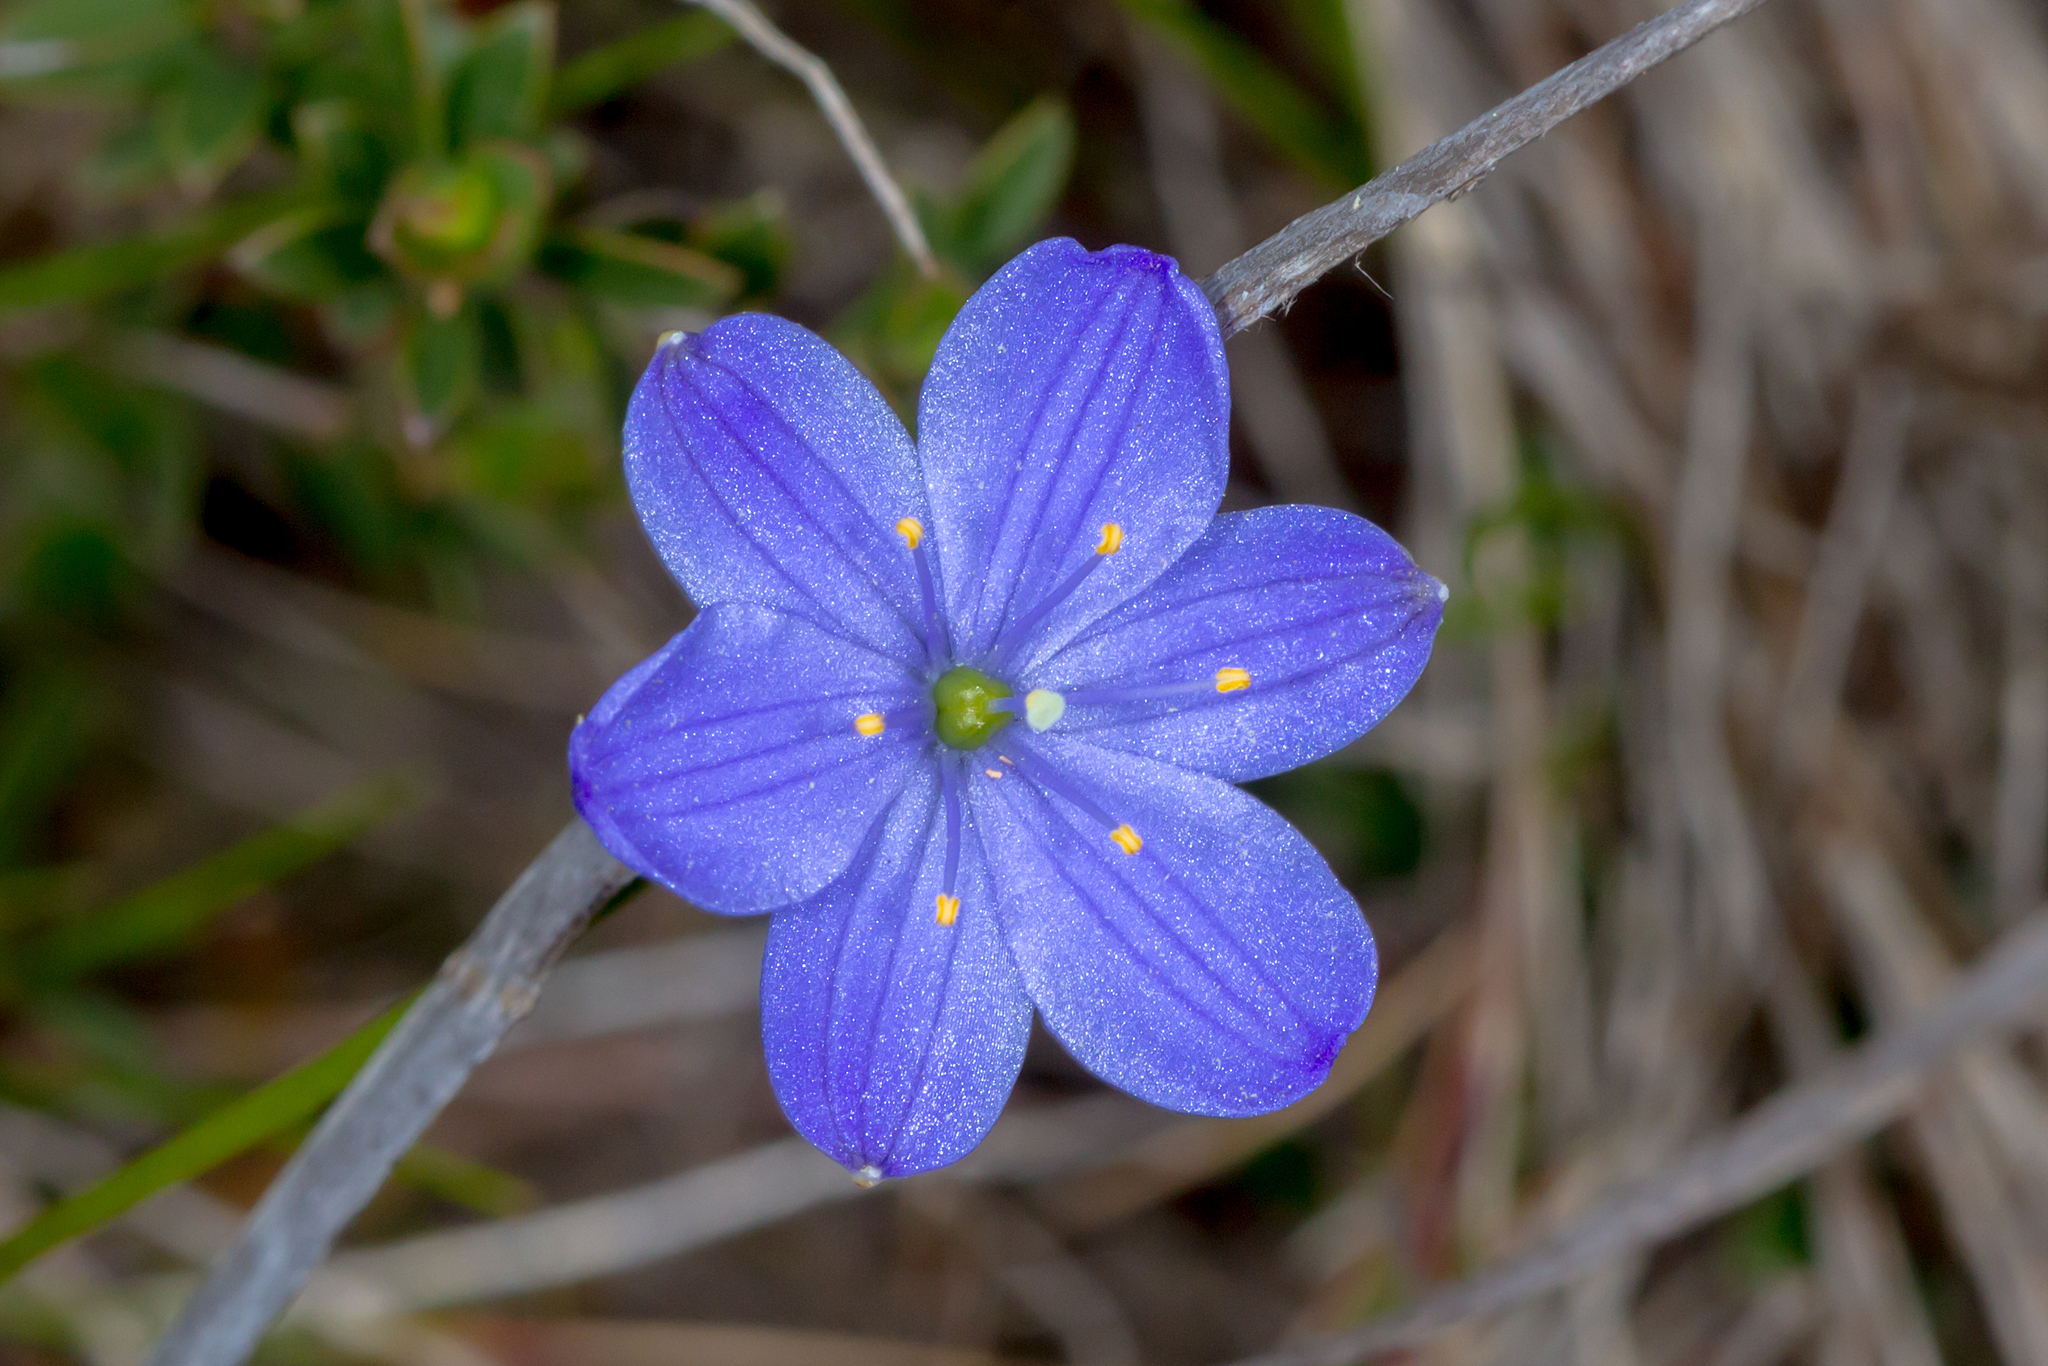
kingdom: Plantae
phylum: Tracheophyta
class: Liliopsida
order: Asparagales
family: Asphodelaceae
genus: Chamaescilla
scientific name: Chamaescilla corymbosa
